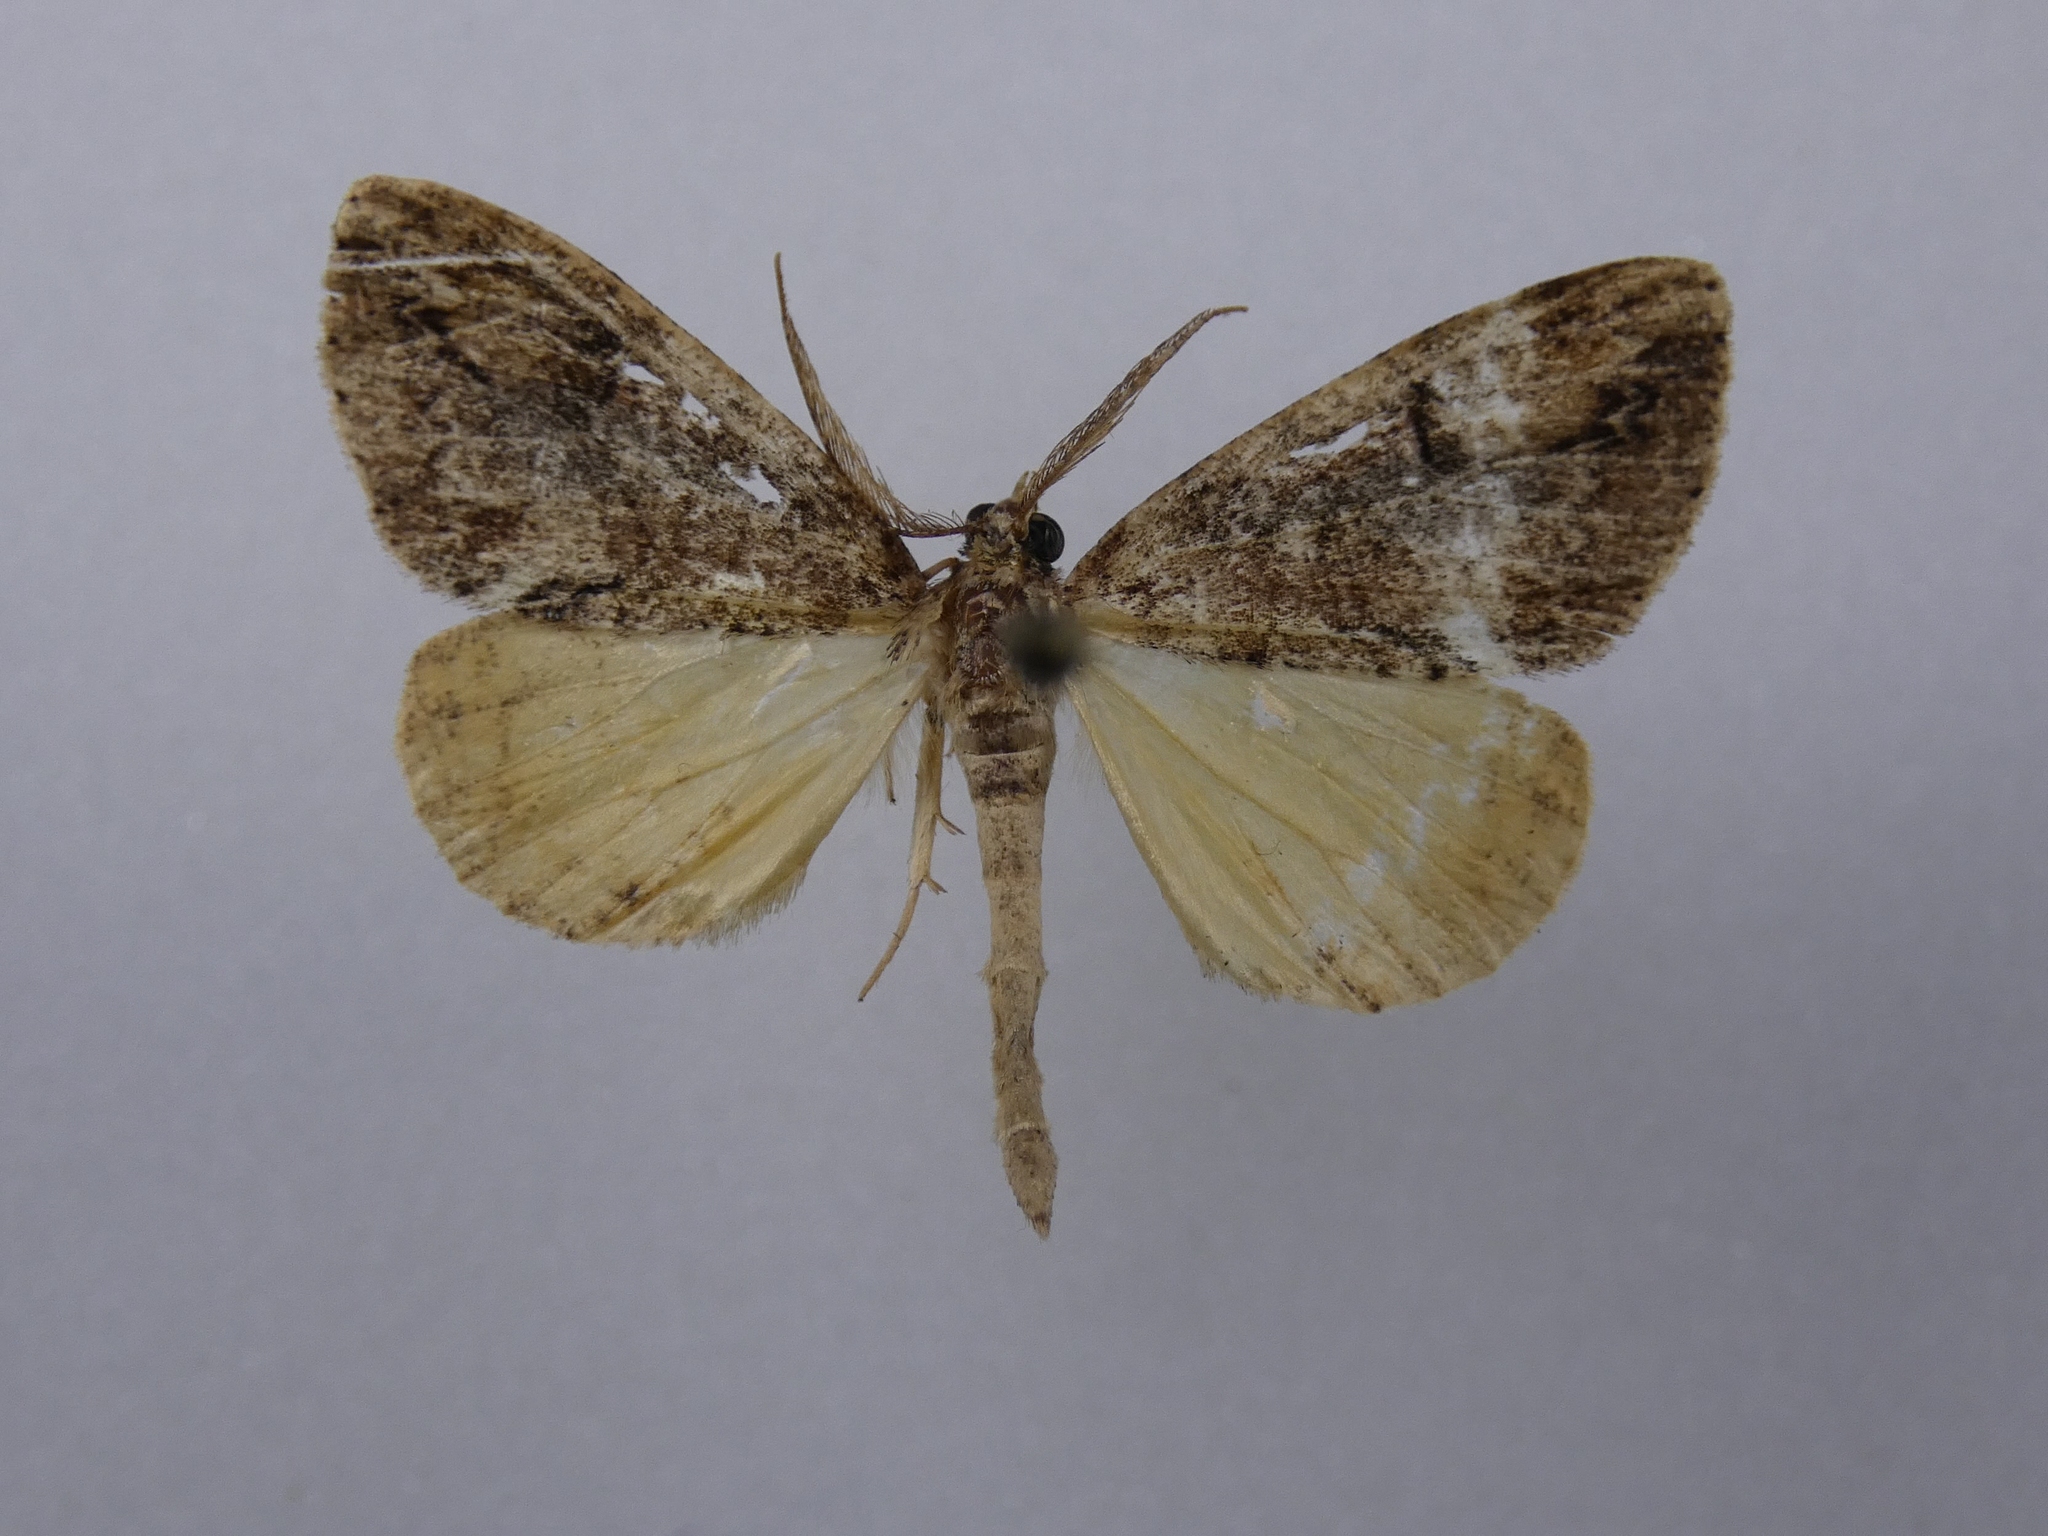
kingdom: Animalia
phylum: Arthropoda
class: Insecta
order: Lepidoptera
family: Geometridae
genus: Pseudocoremia
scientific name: Pseudocoremia suavis
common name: Common forest looper
